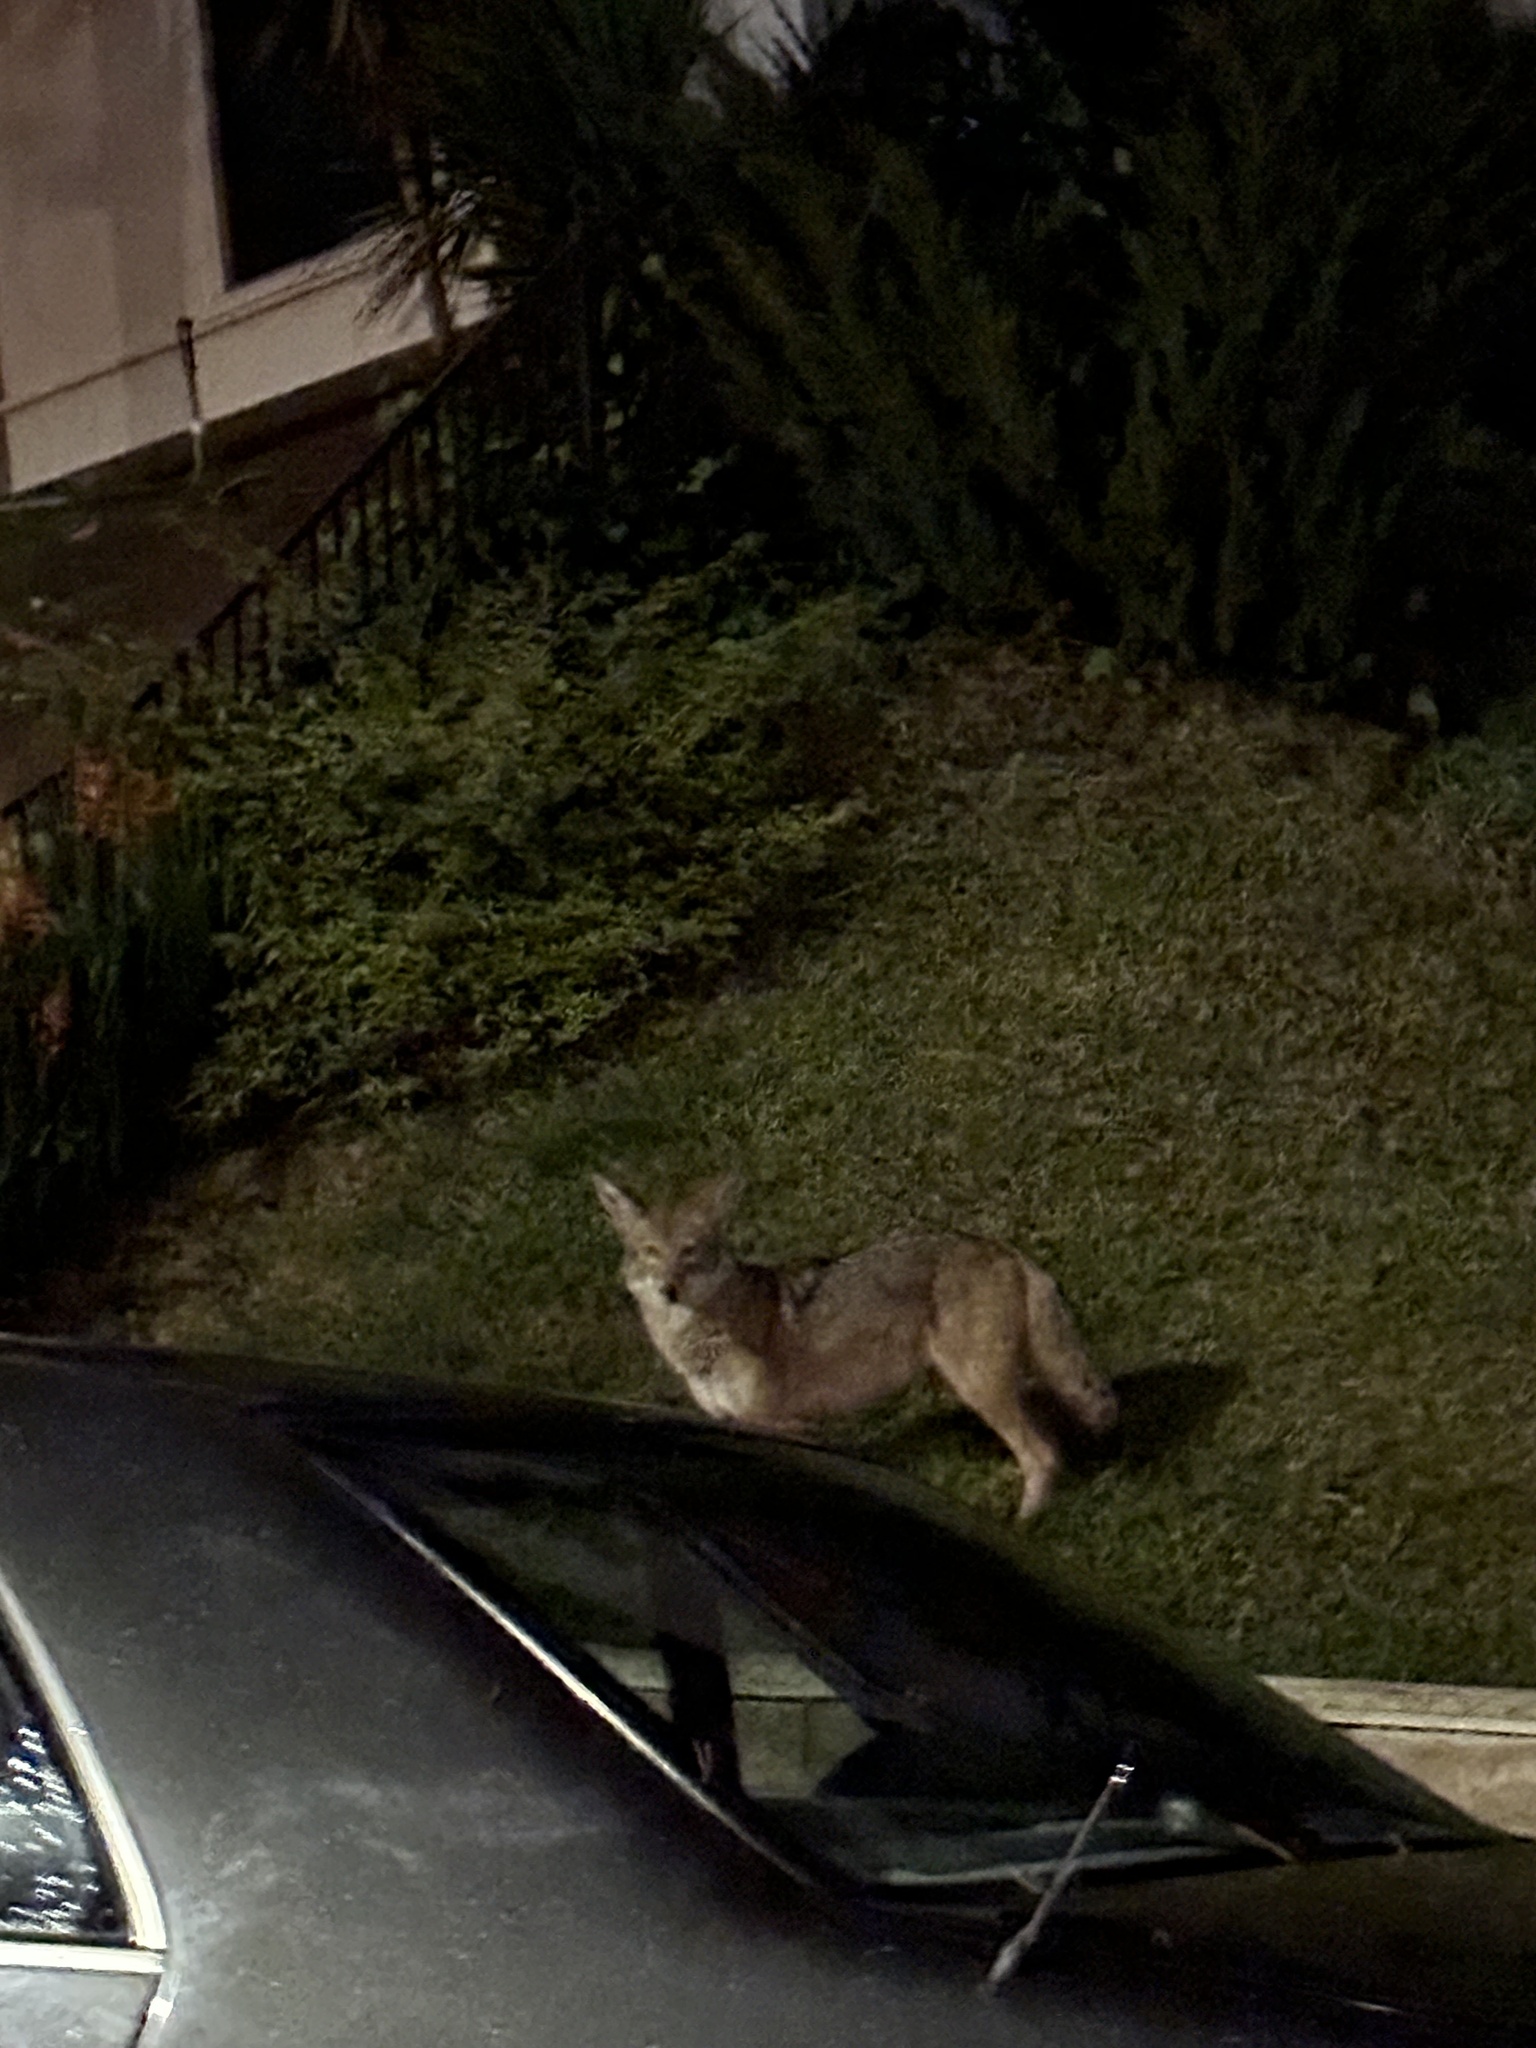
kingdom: Animalia
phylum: Chordata
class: Mammalia
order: Carnivora
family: Canidae
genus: Canis
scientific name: Canis latrans
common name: Coyote
